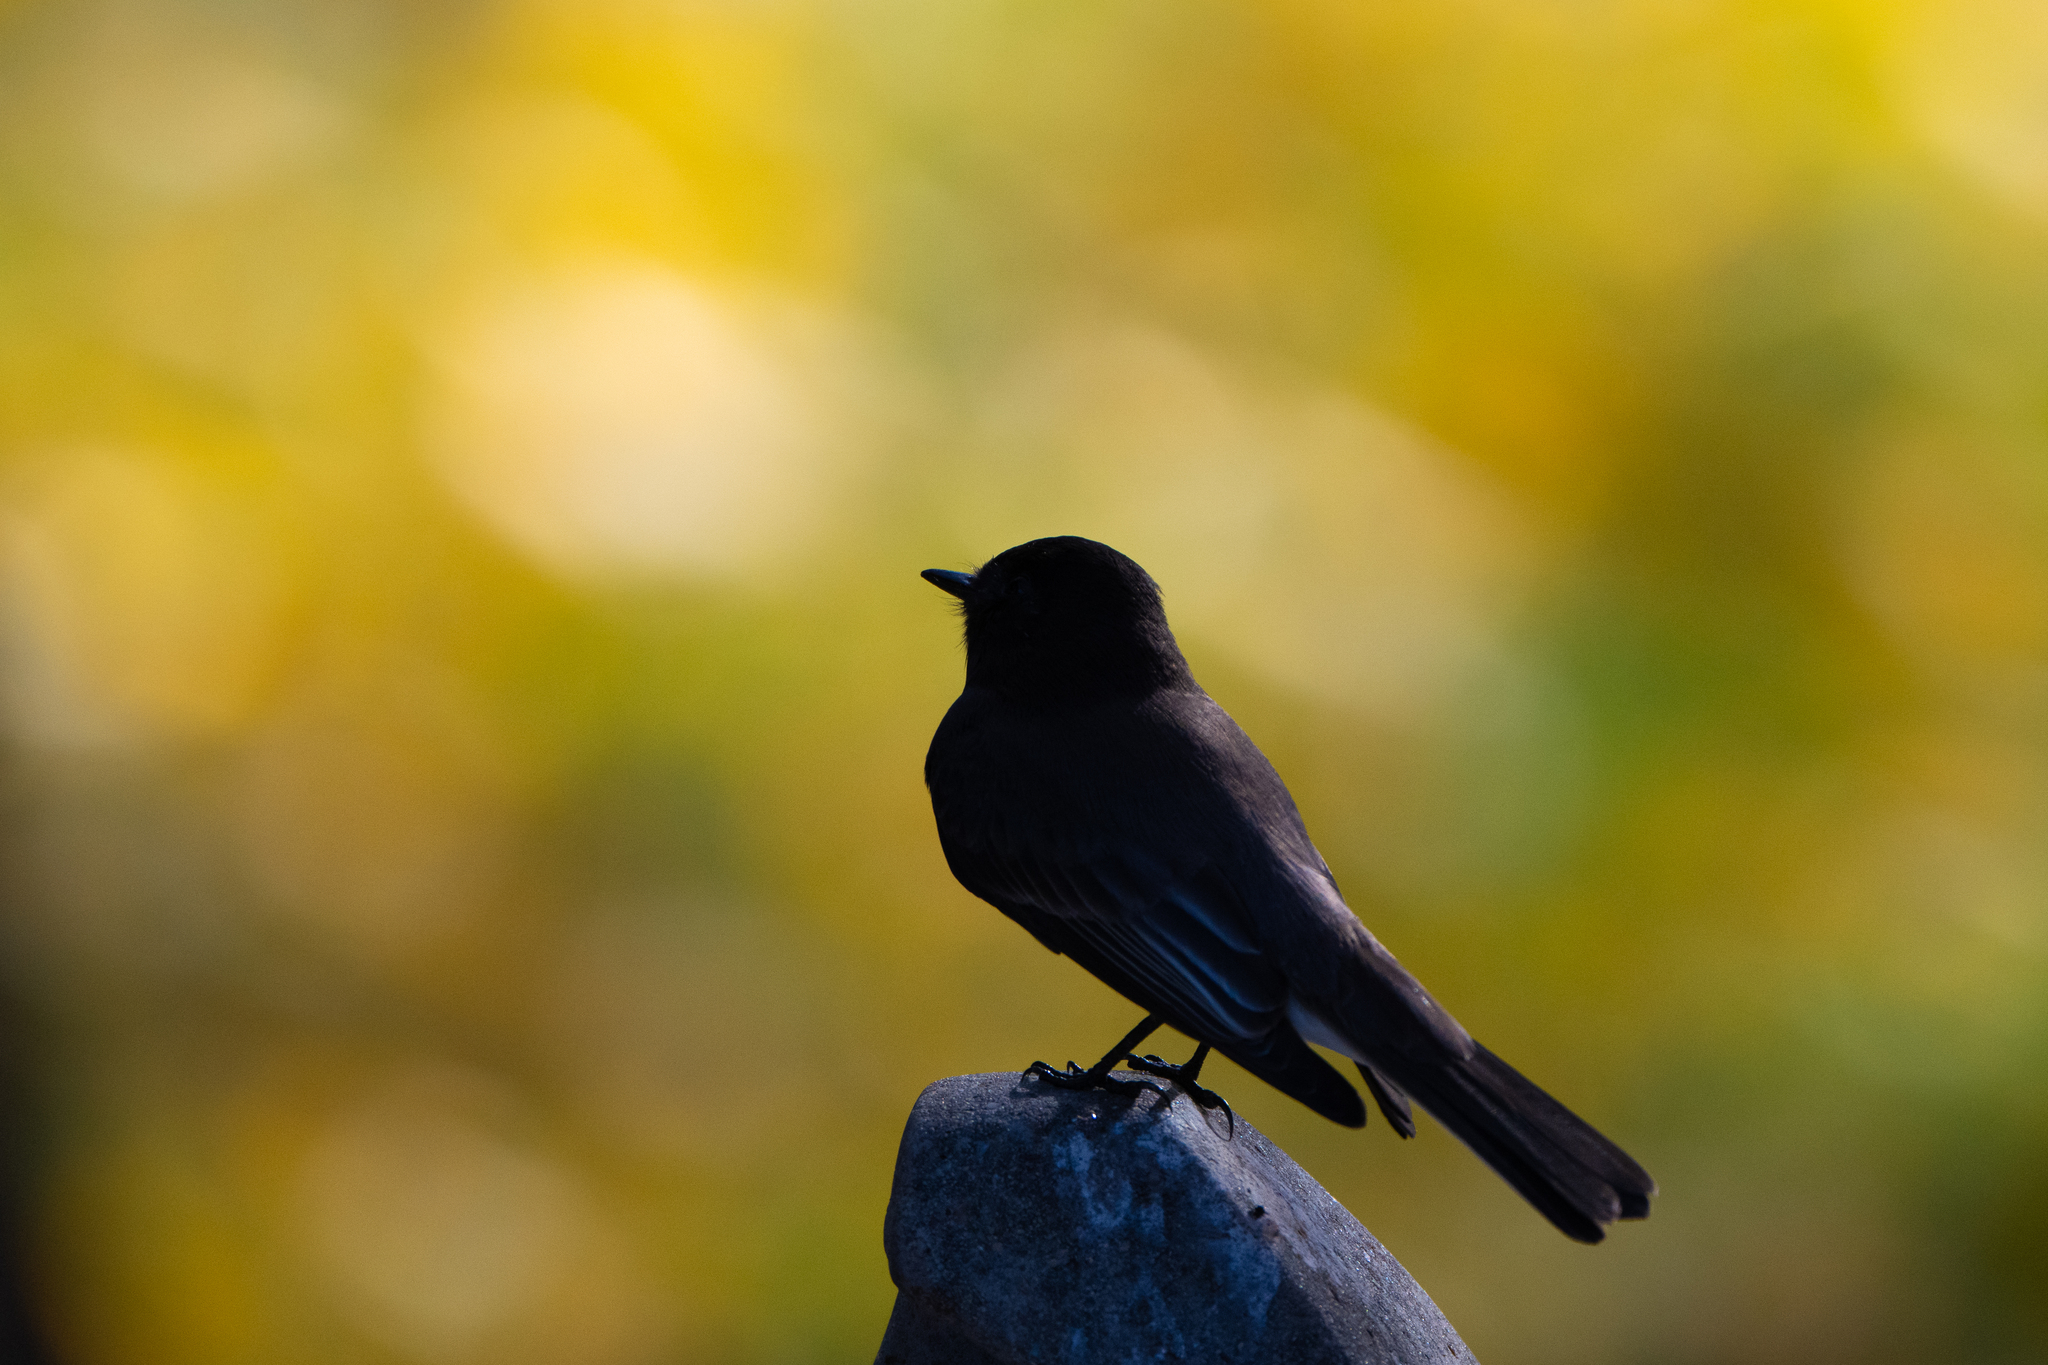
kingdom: Animalia
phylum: Chordata
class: Aves
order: Passeriformes
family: Tyrannidae
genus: Sayornis
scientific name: Sayornis nigricans
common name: Black phoebe
